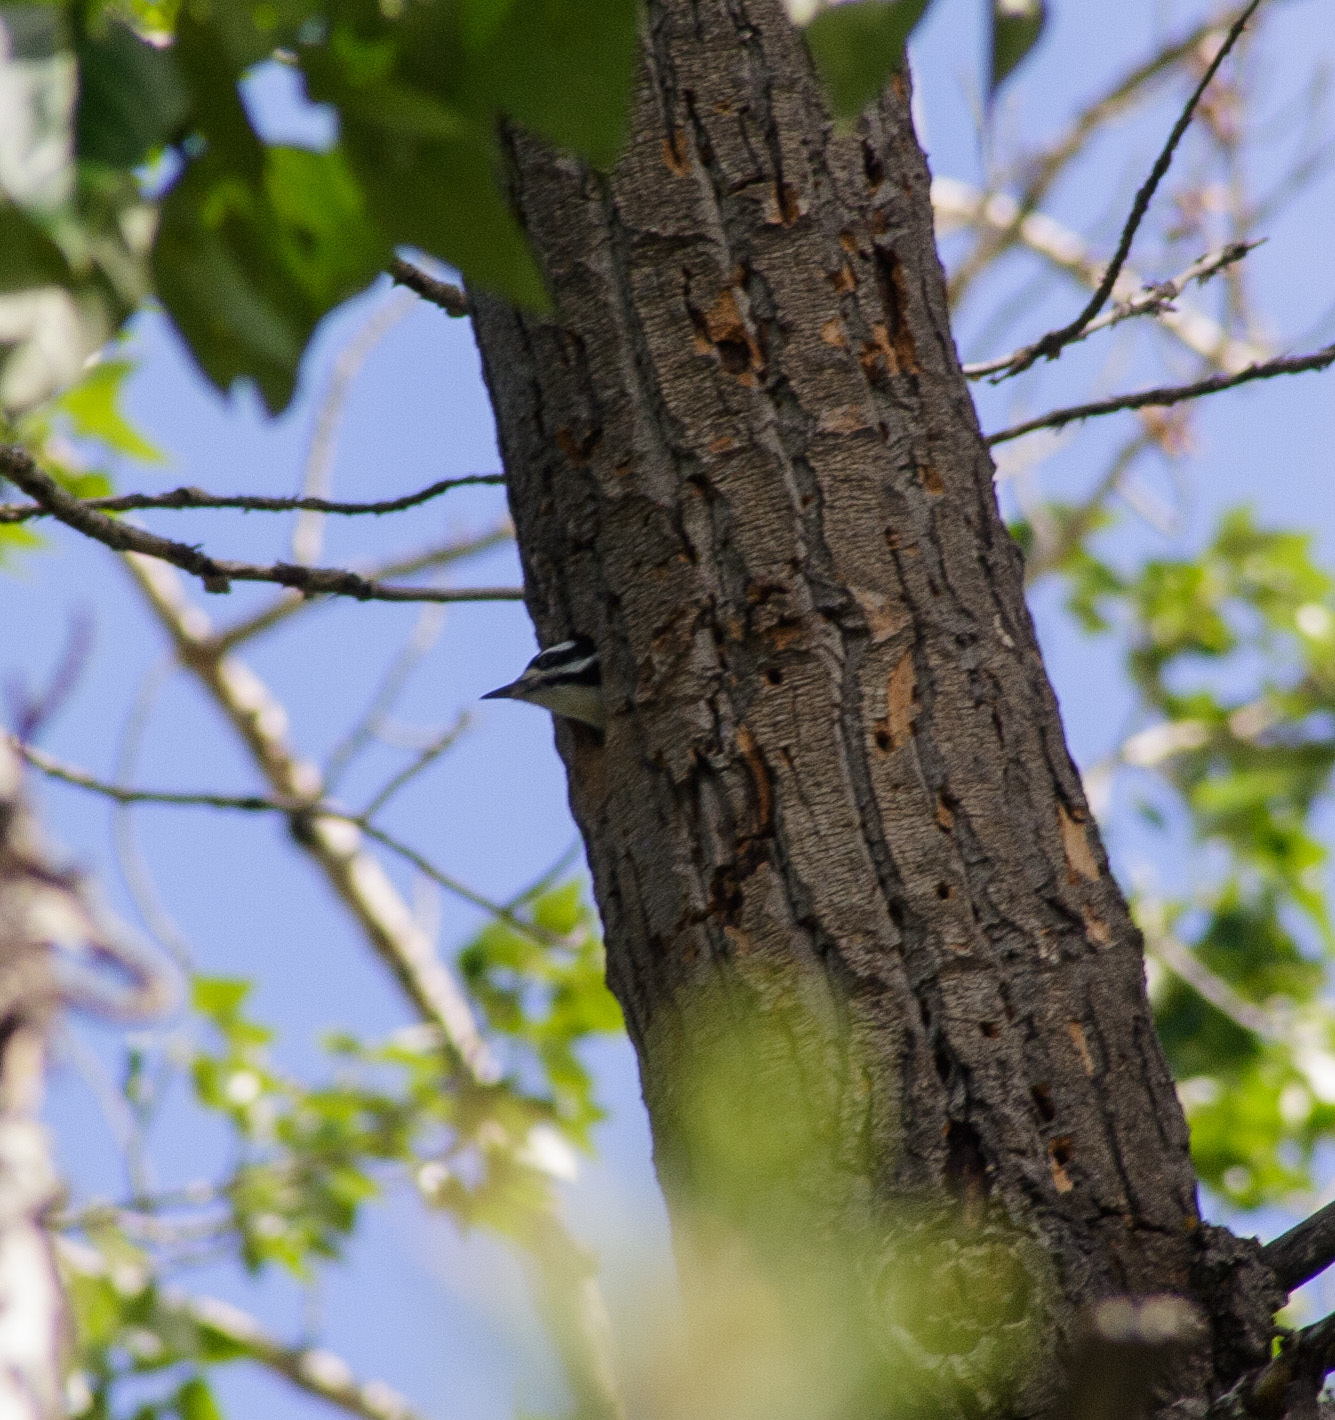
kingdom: Animalia
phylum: Chordata
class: Aves
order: Piciformes
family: Picidae
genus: Leuconotopicus
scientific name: Leuconotopicus villosus
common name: Hairy woodpecker
